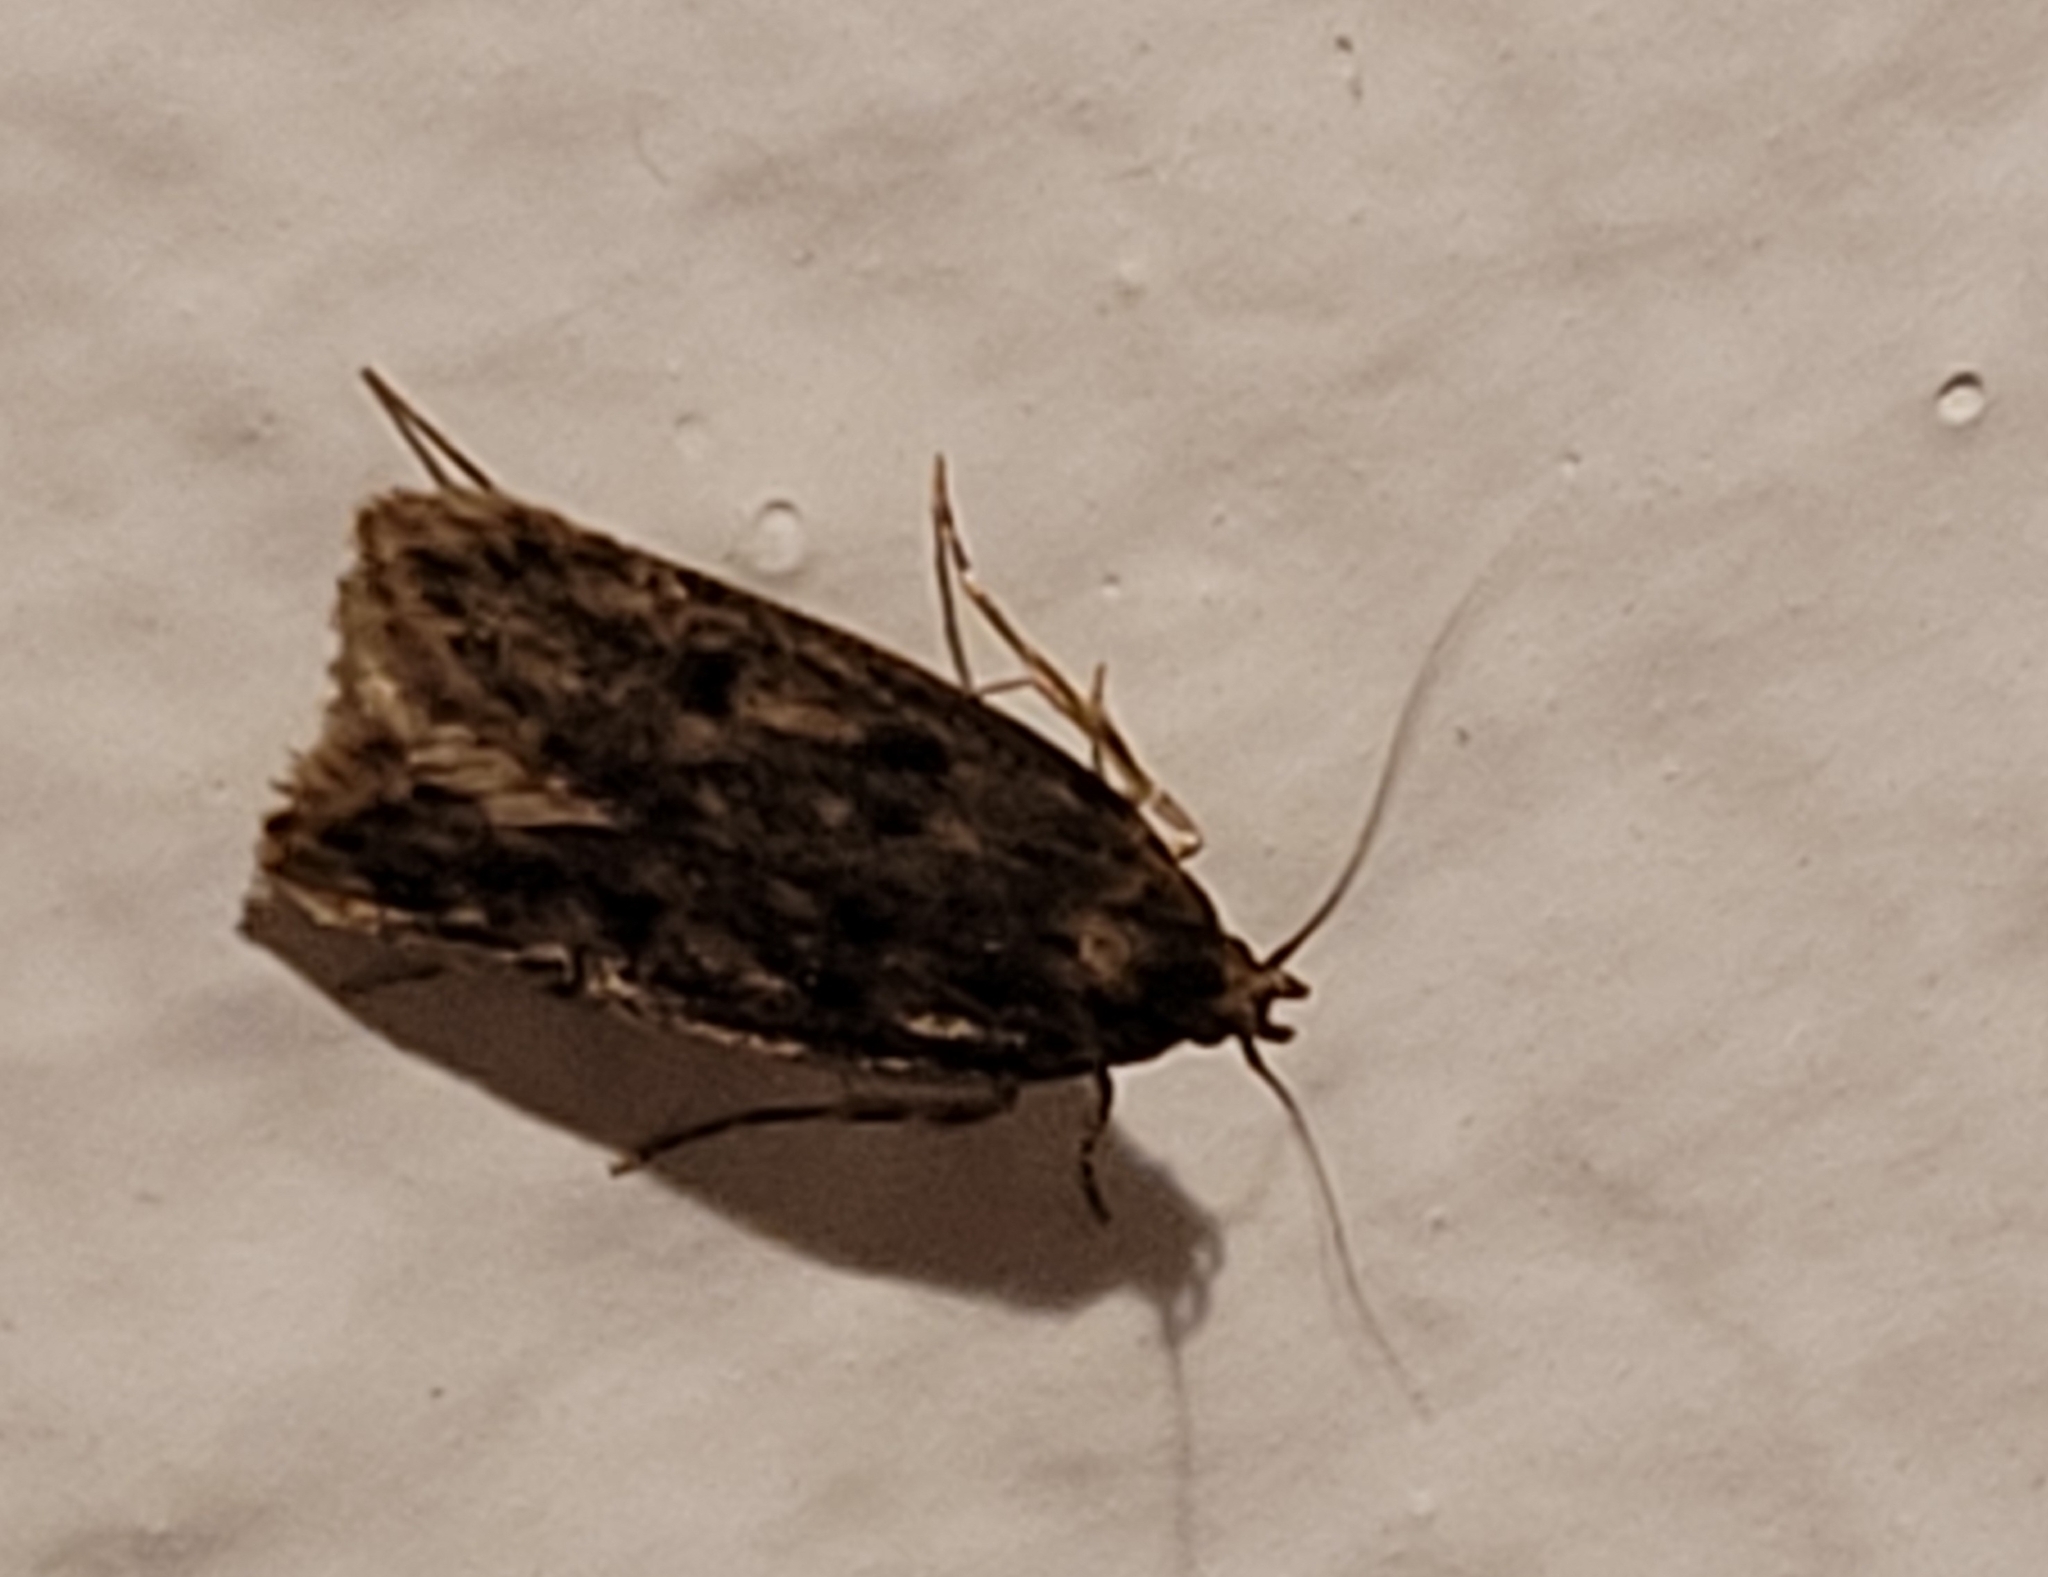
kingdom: Animalia
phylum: Arthropoda
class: Insecta
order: Lepidoptera
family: Oecophoridae
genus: Hofmannophila
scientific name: Hofmannophila pseudospretella
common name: Brown house moth
